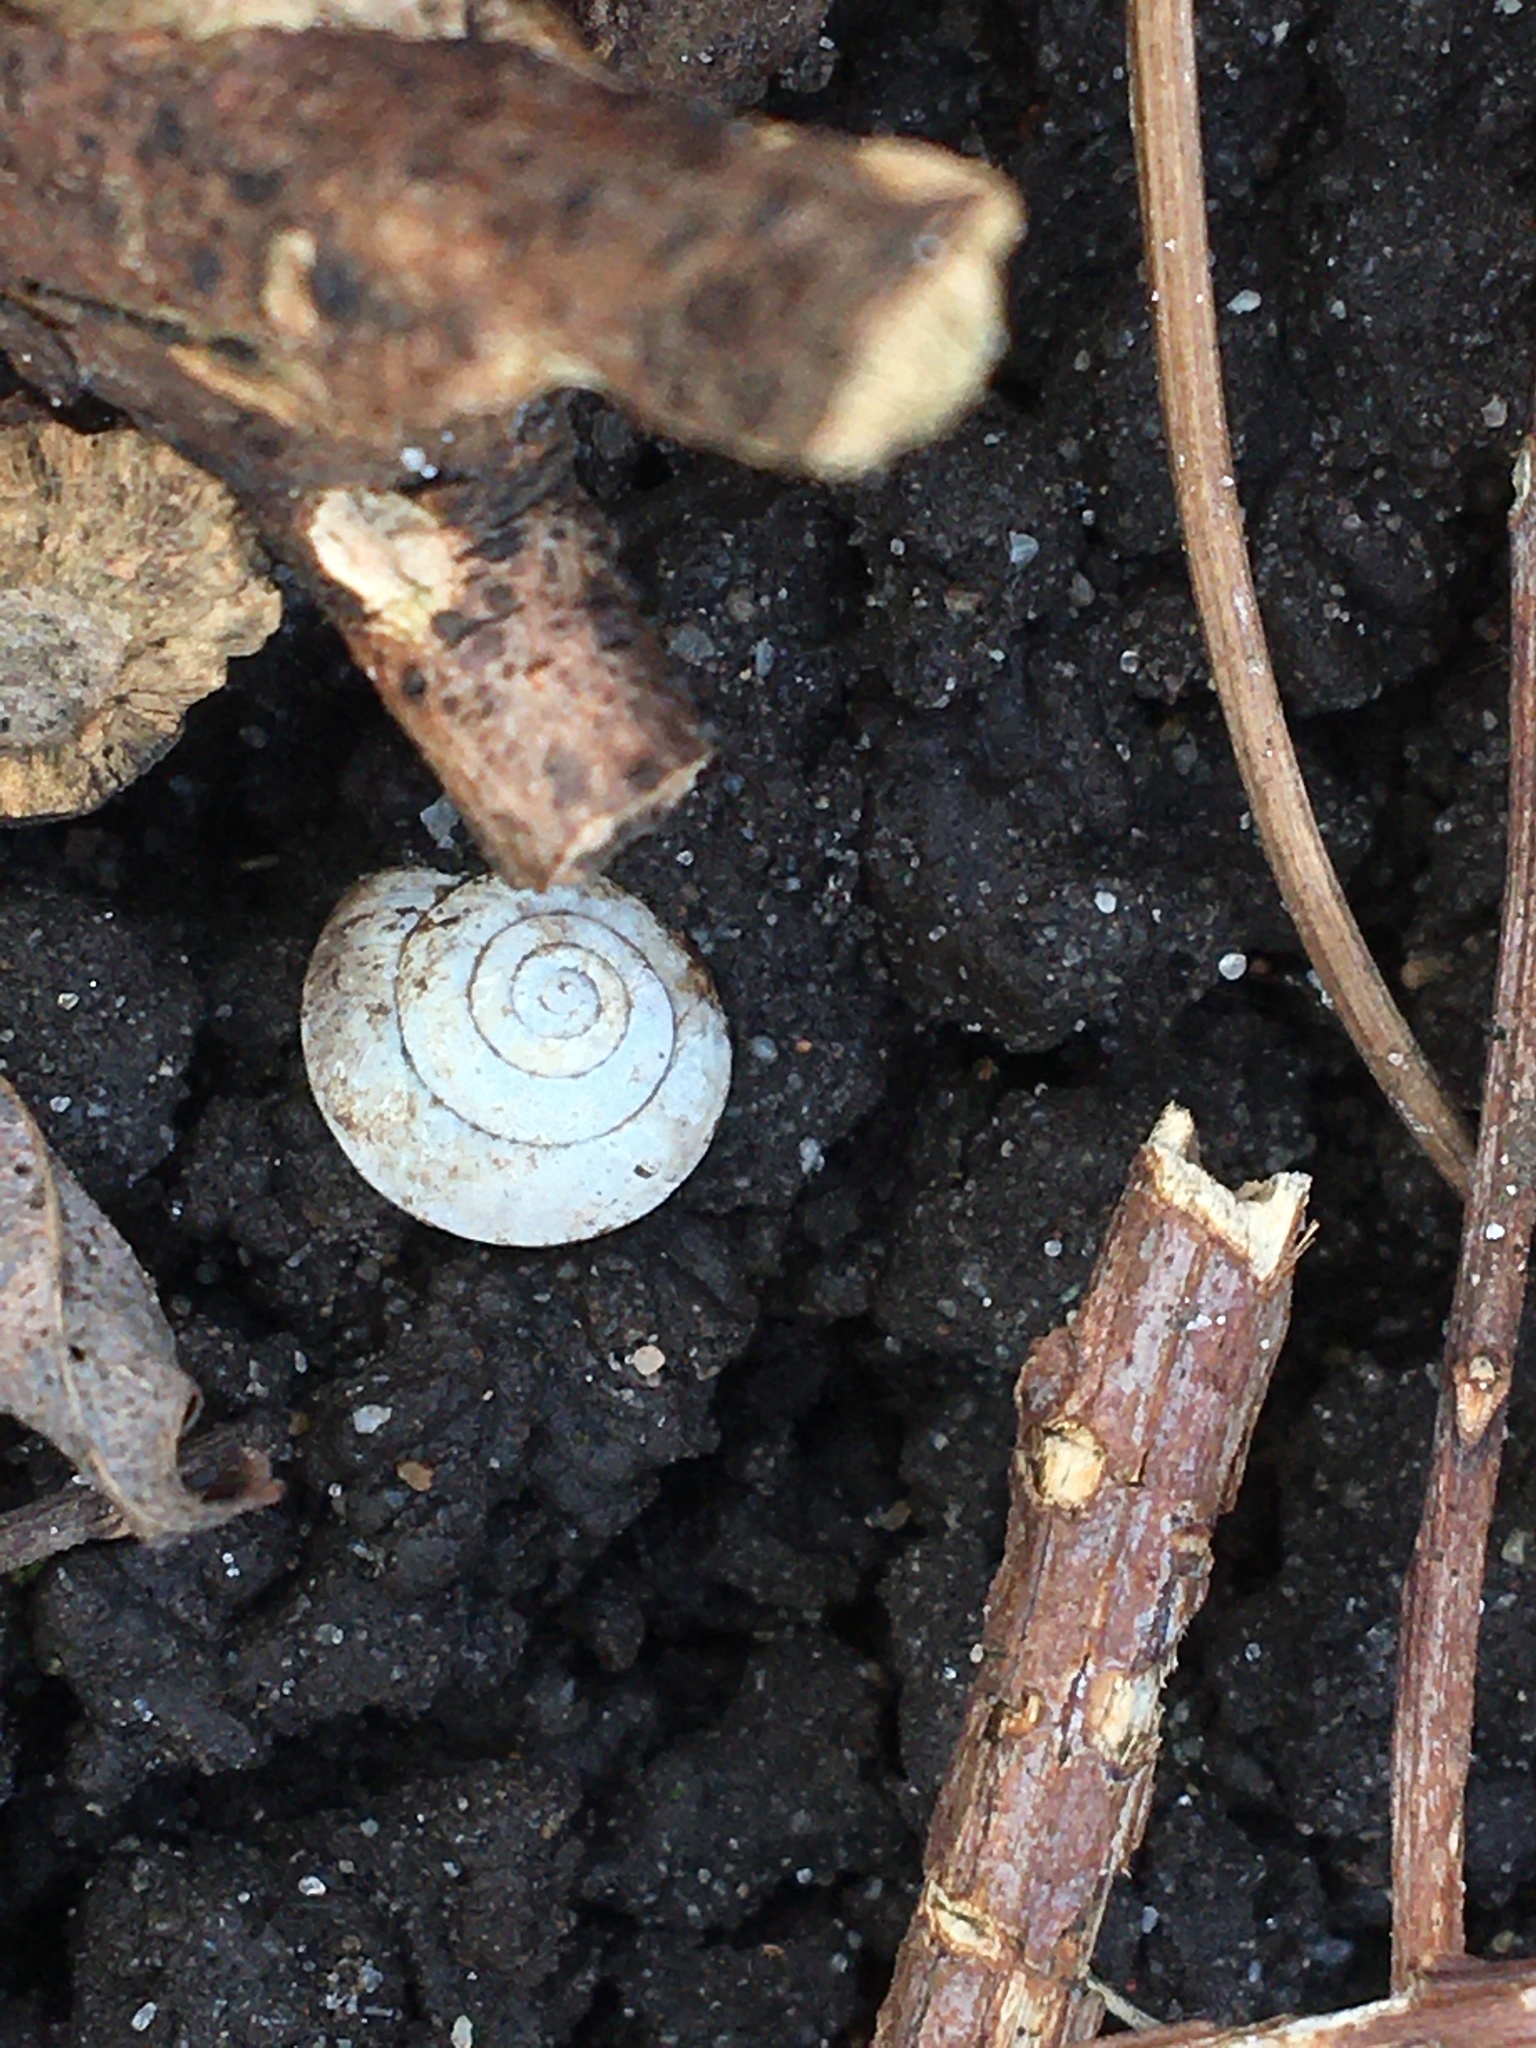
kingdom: Animalia
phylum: Mollusca
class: Gastropoda
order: Stylommatophora
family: Hygromiidae
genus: Hygromia
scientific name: Hygromia cinctella
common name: Girdled snail
